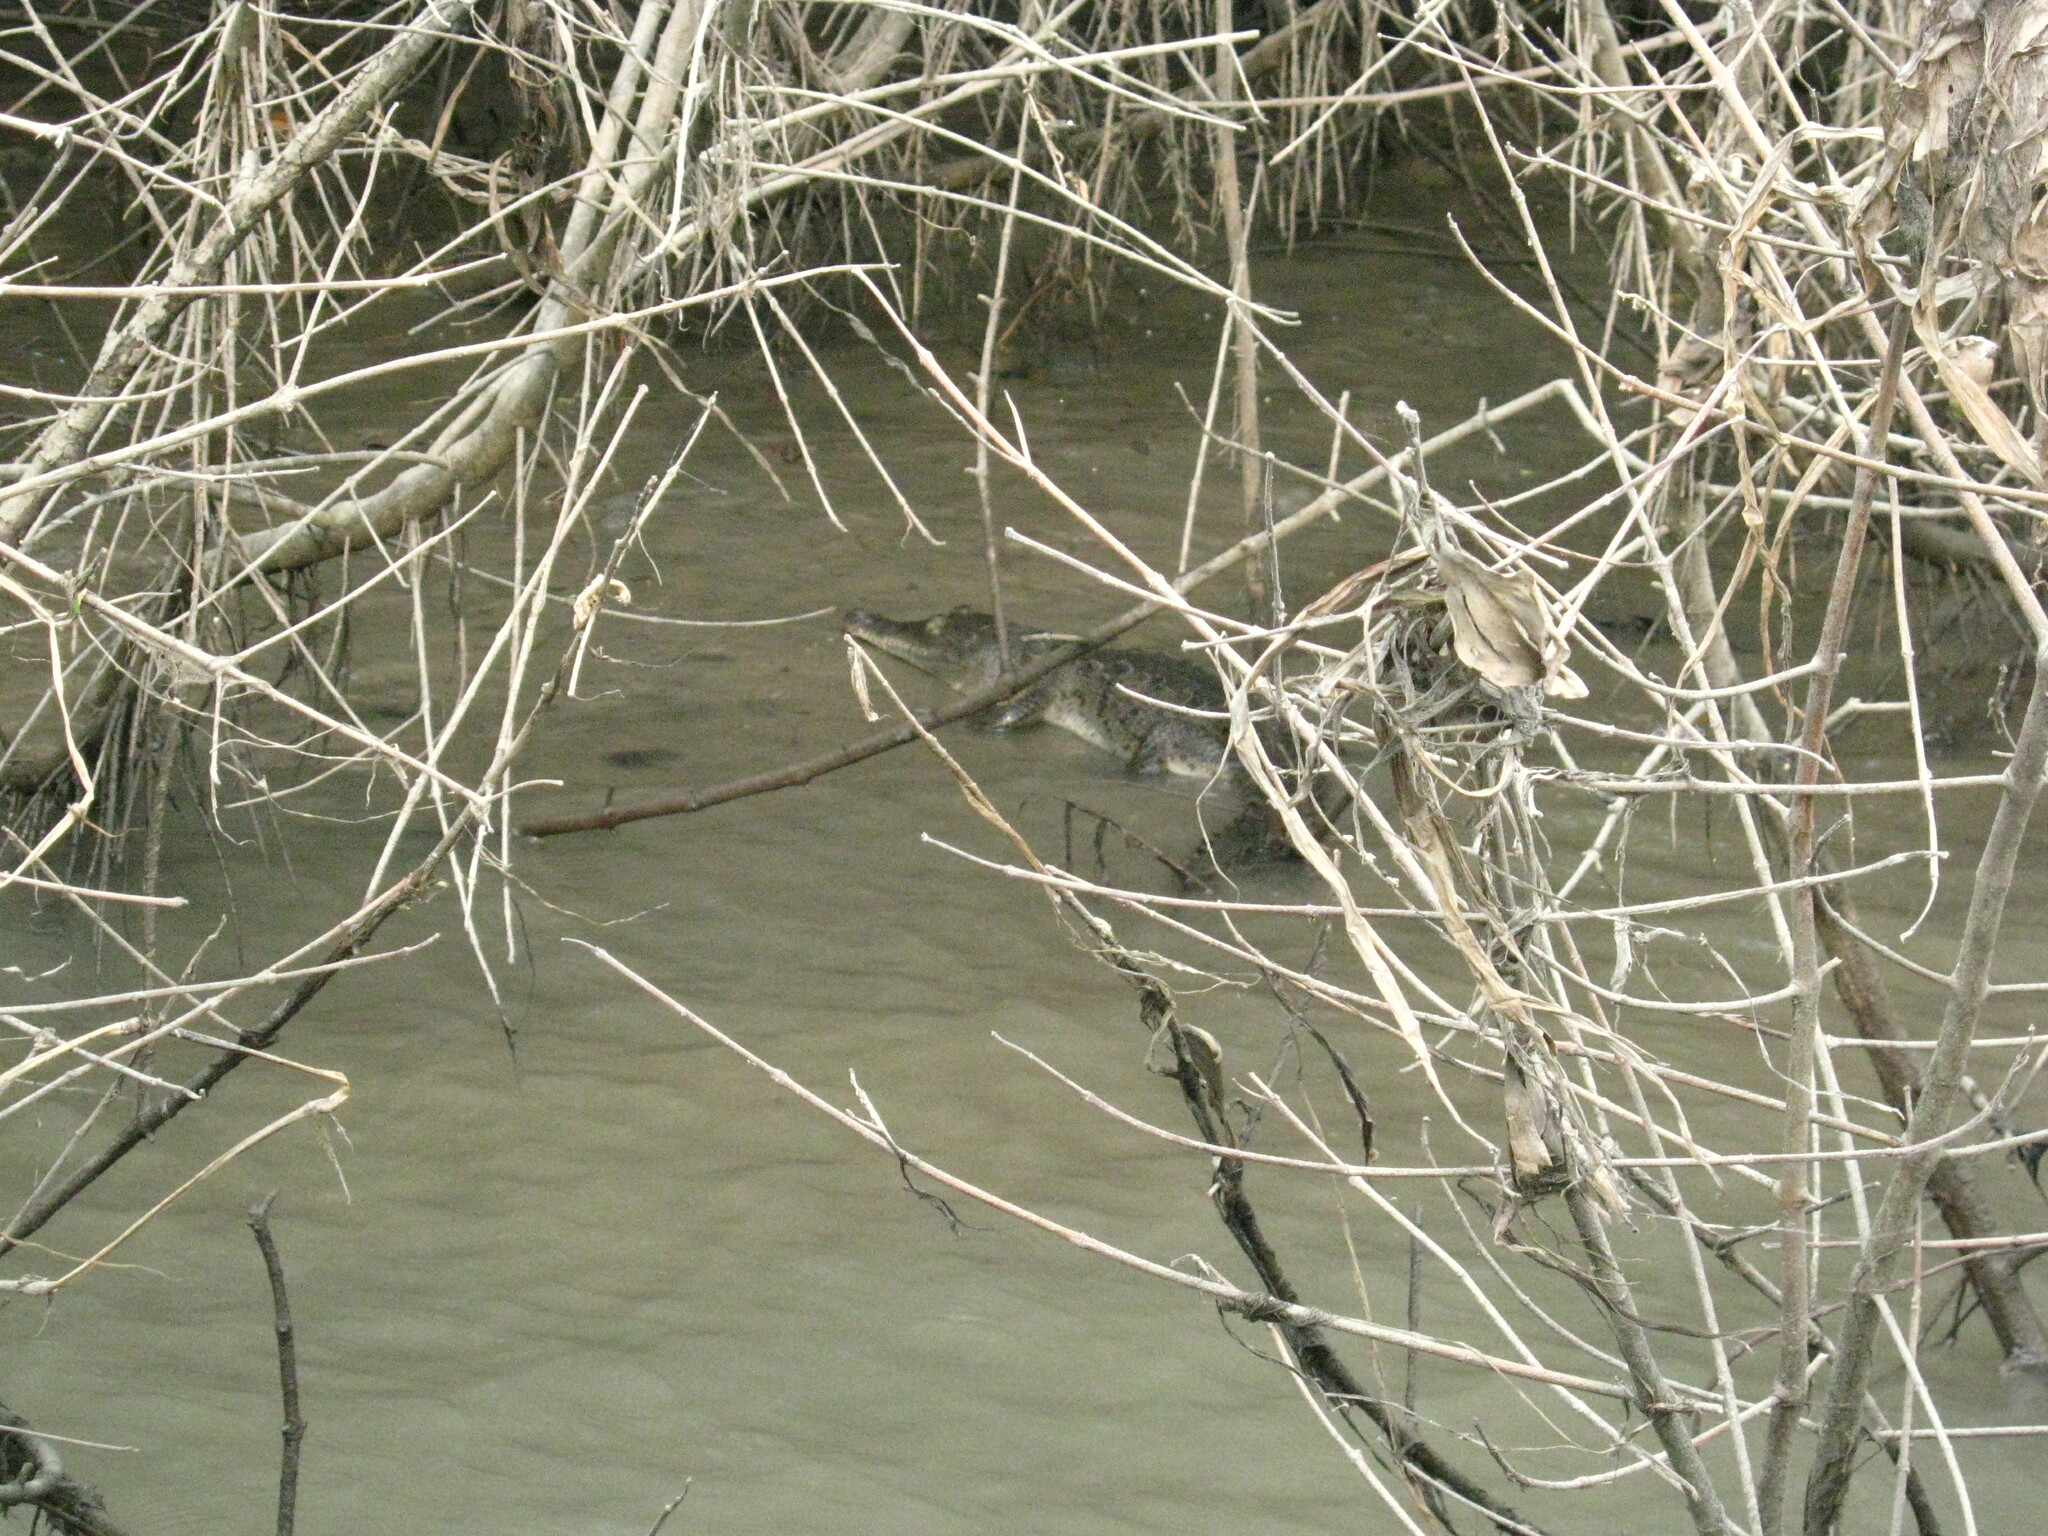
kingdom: Animalia
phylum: Chordata
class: Crocodylia
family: Crocodylidae
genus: Crocodylus
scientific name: Crocodylus acutus
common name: American crocodile
